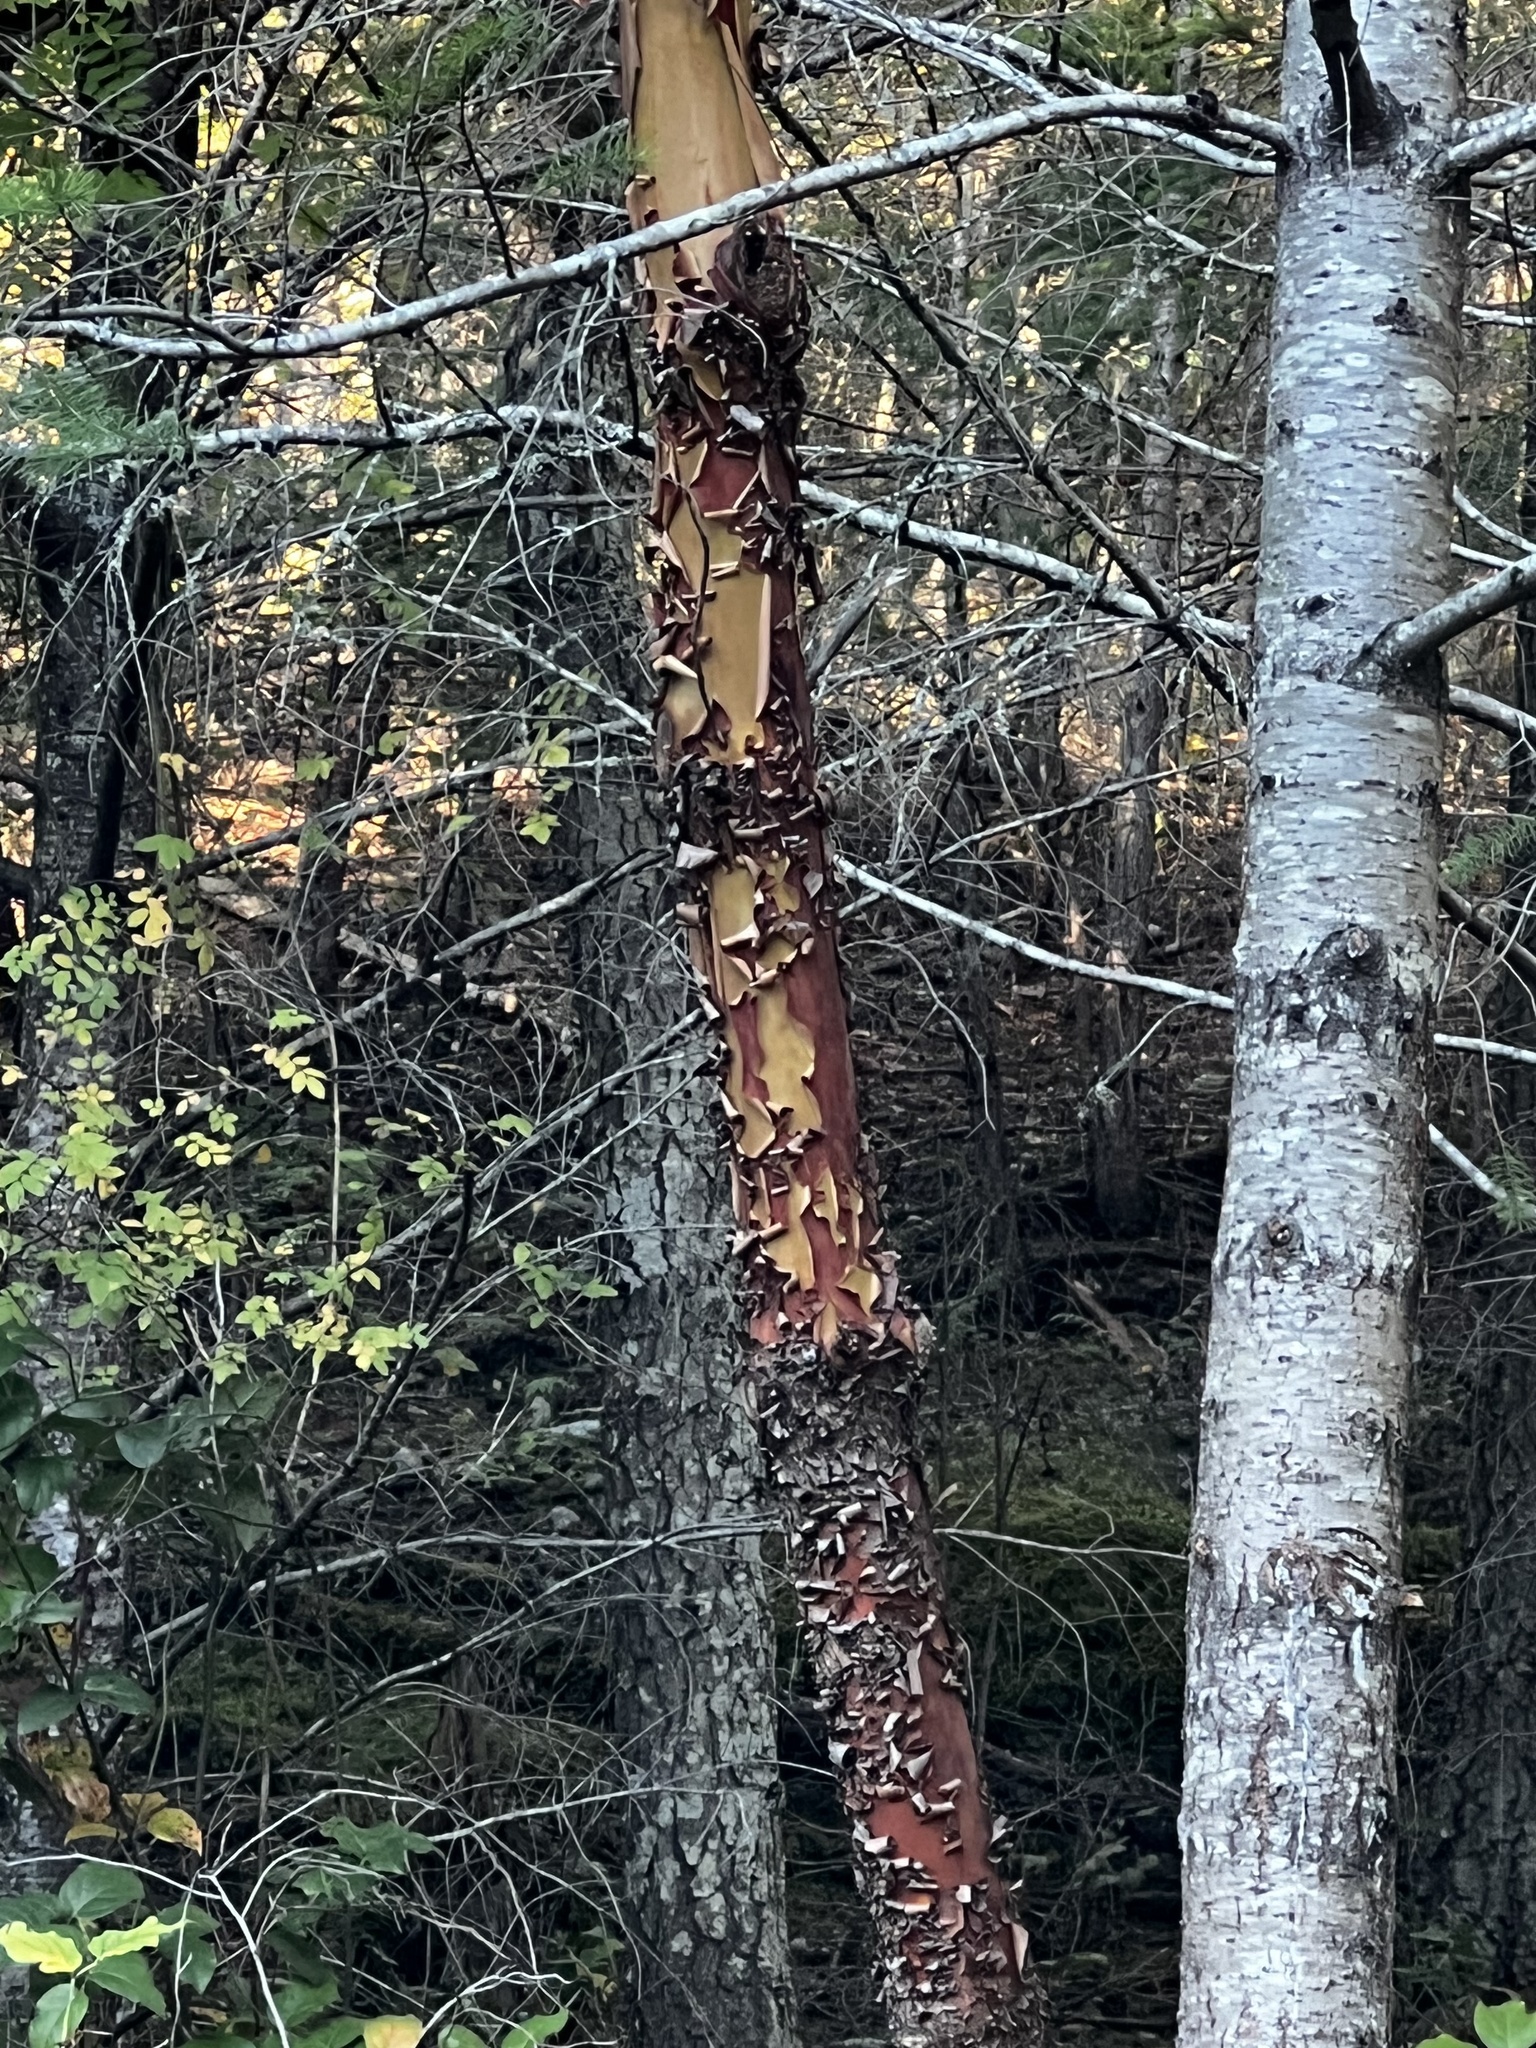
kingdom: Plantae
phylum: Tracheophyta
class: Magnoliopsida
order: Ericales
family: Ericaceae
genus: Arbutus
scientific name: Arbutus menziesii
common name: Pacific madrone
